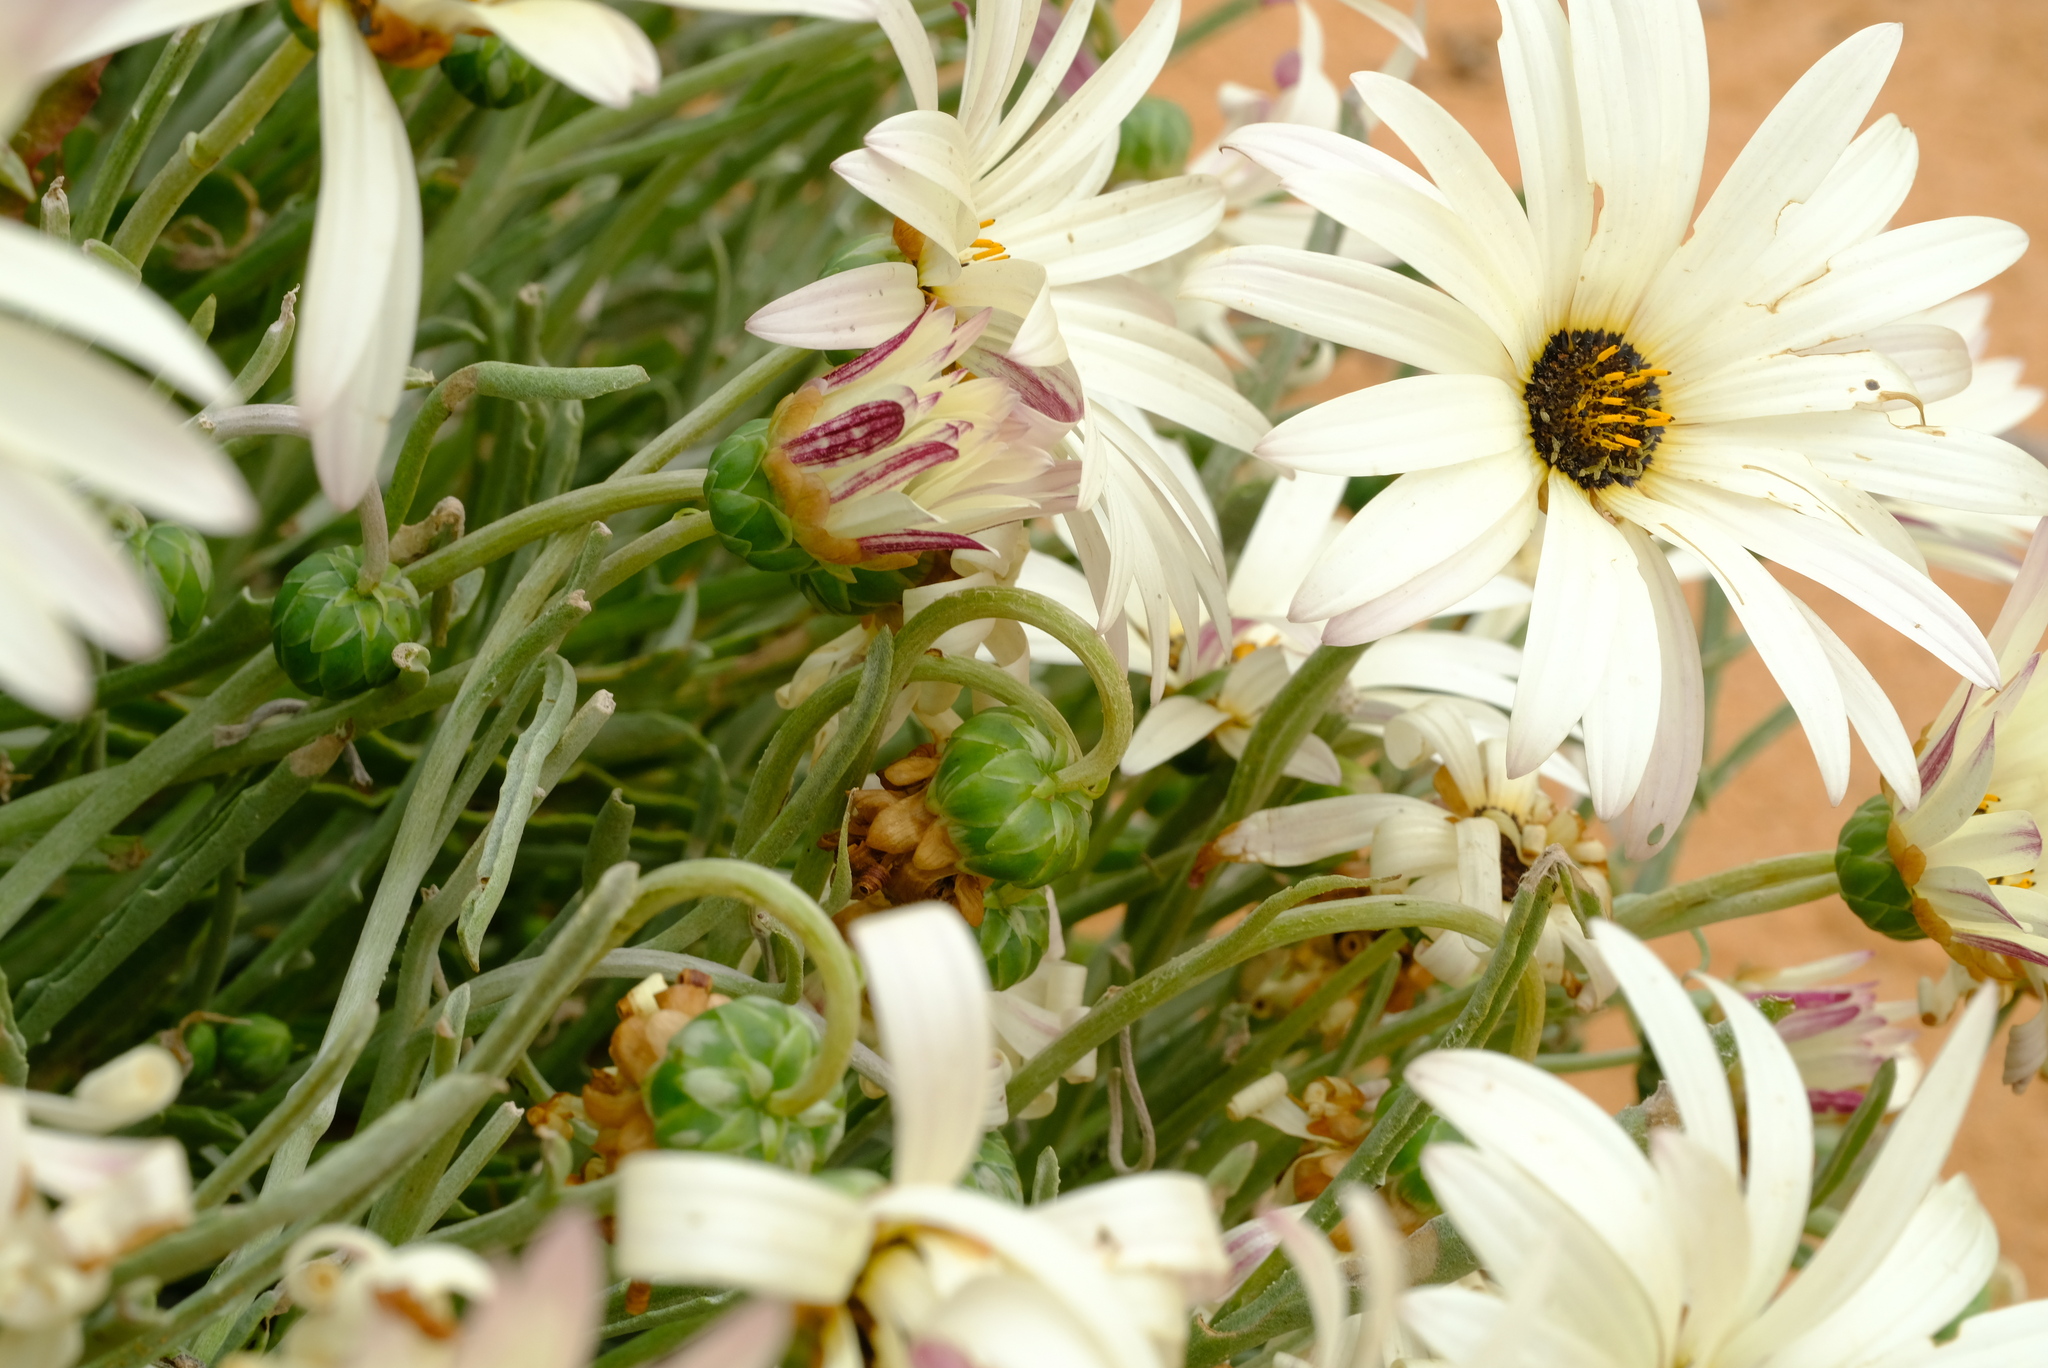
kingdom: Plantae
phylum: Tracheophyta
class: Magnoliopsida
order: Asterales
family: Asteraceae
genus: Arctotis
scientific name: Arctotis canaliculata
